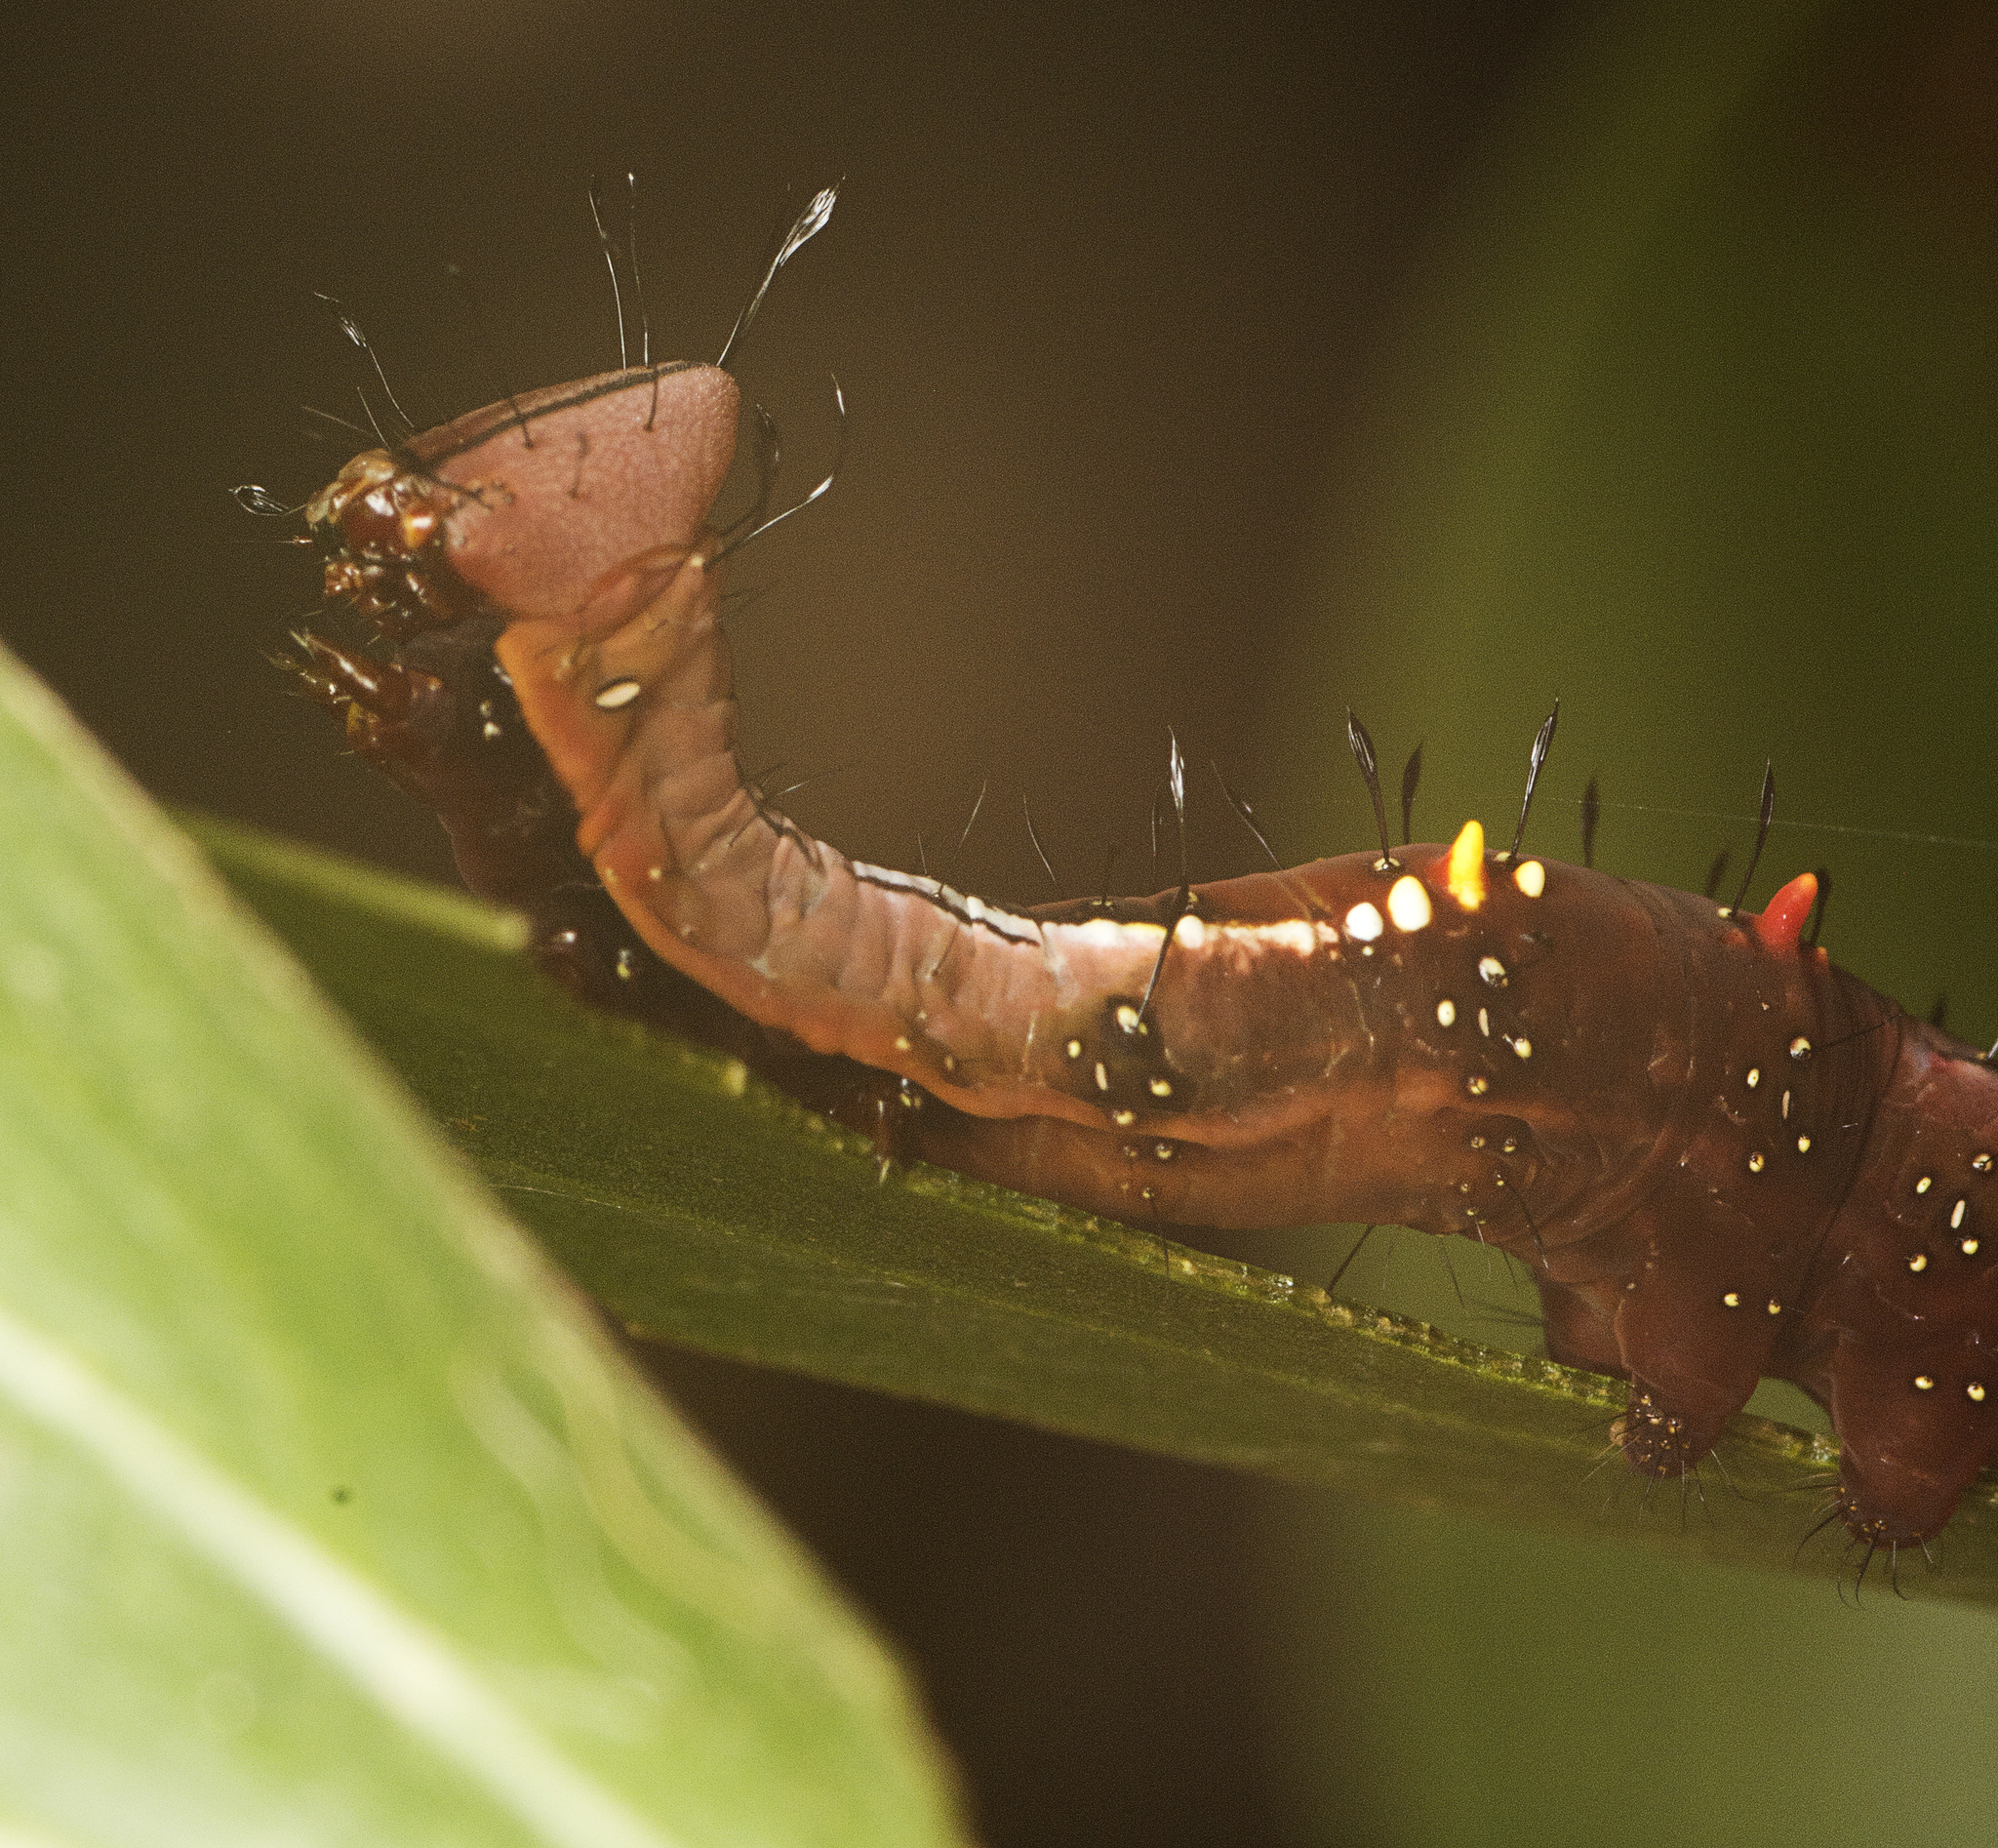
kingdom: Animalia
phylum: Arthropoda
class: Insecta
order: Lepidoptera
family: Notodontidae
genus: Neola
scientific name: Neola semiaurata
